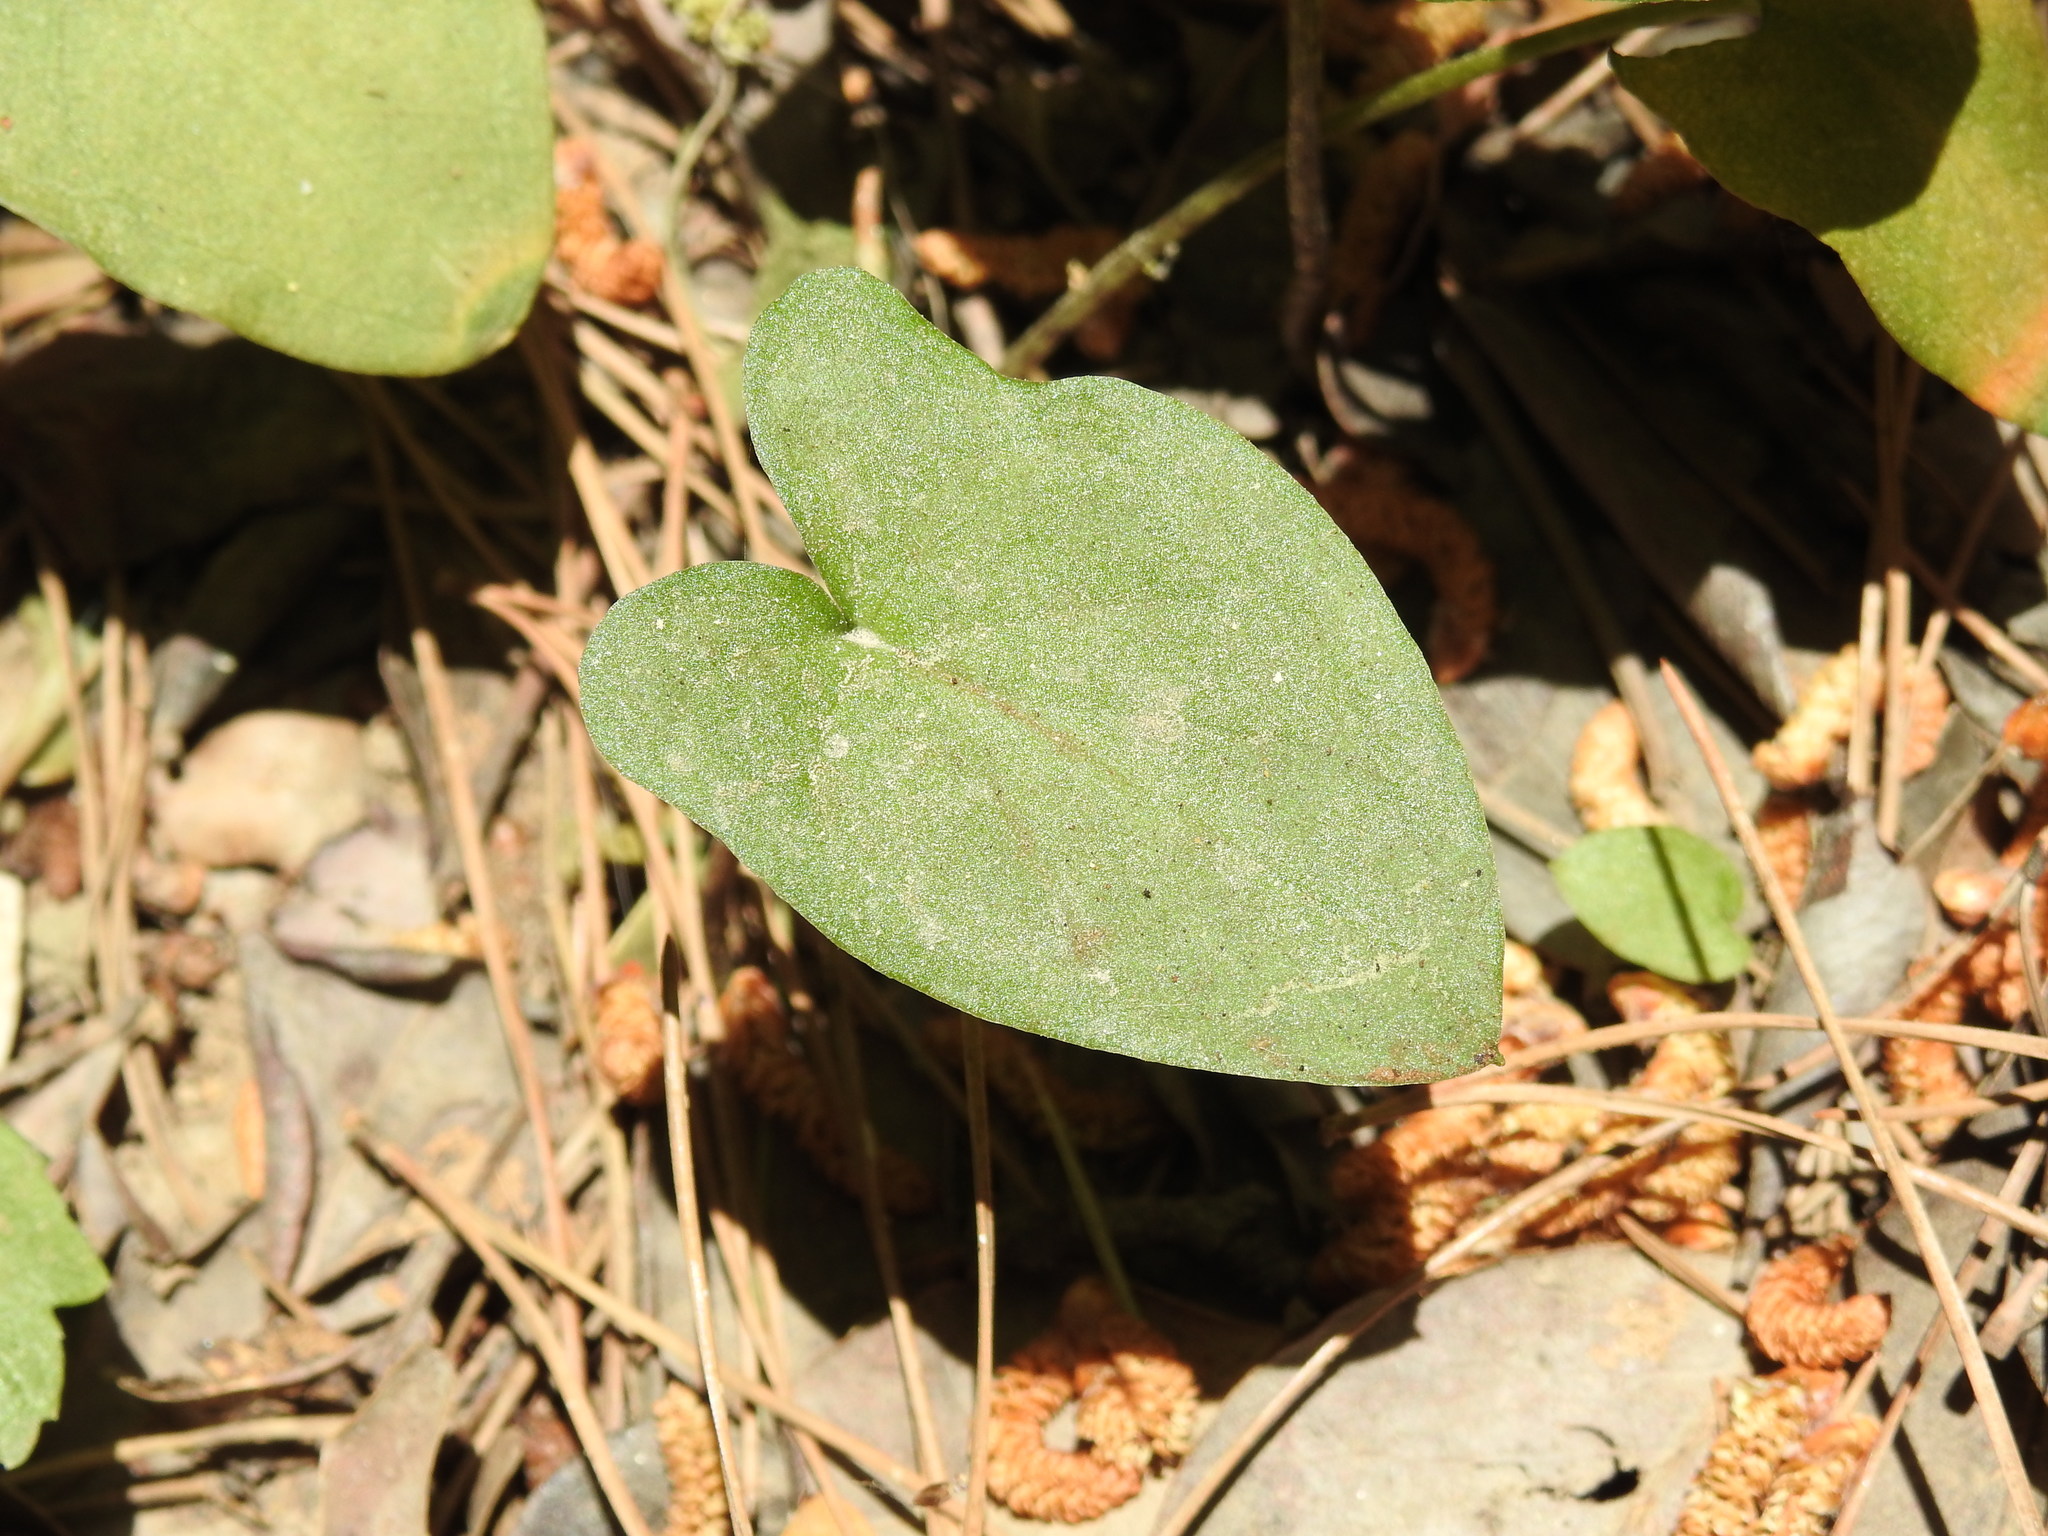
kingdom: Plantae
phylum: Tracheophyta
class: Liliopsida
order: Alismatales
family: Araceae
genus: Arisarum
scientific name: Arisarum vulgare
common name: Common arisarum
